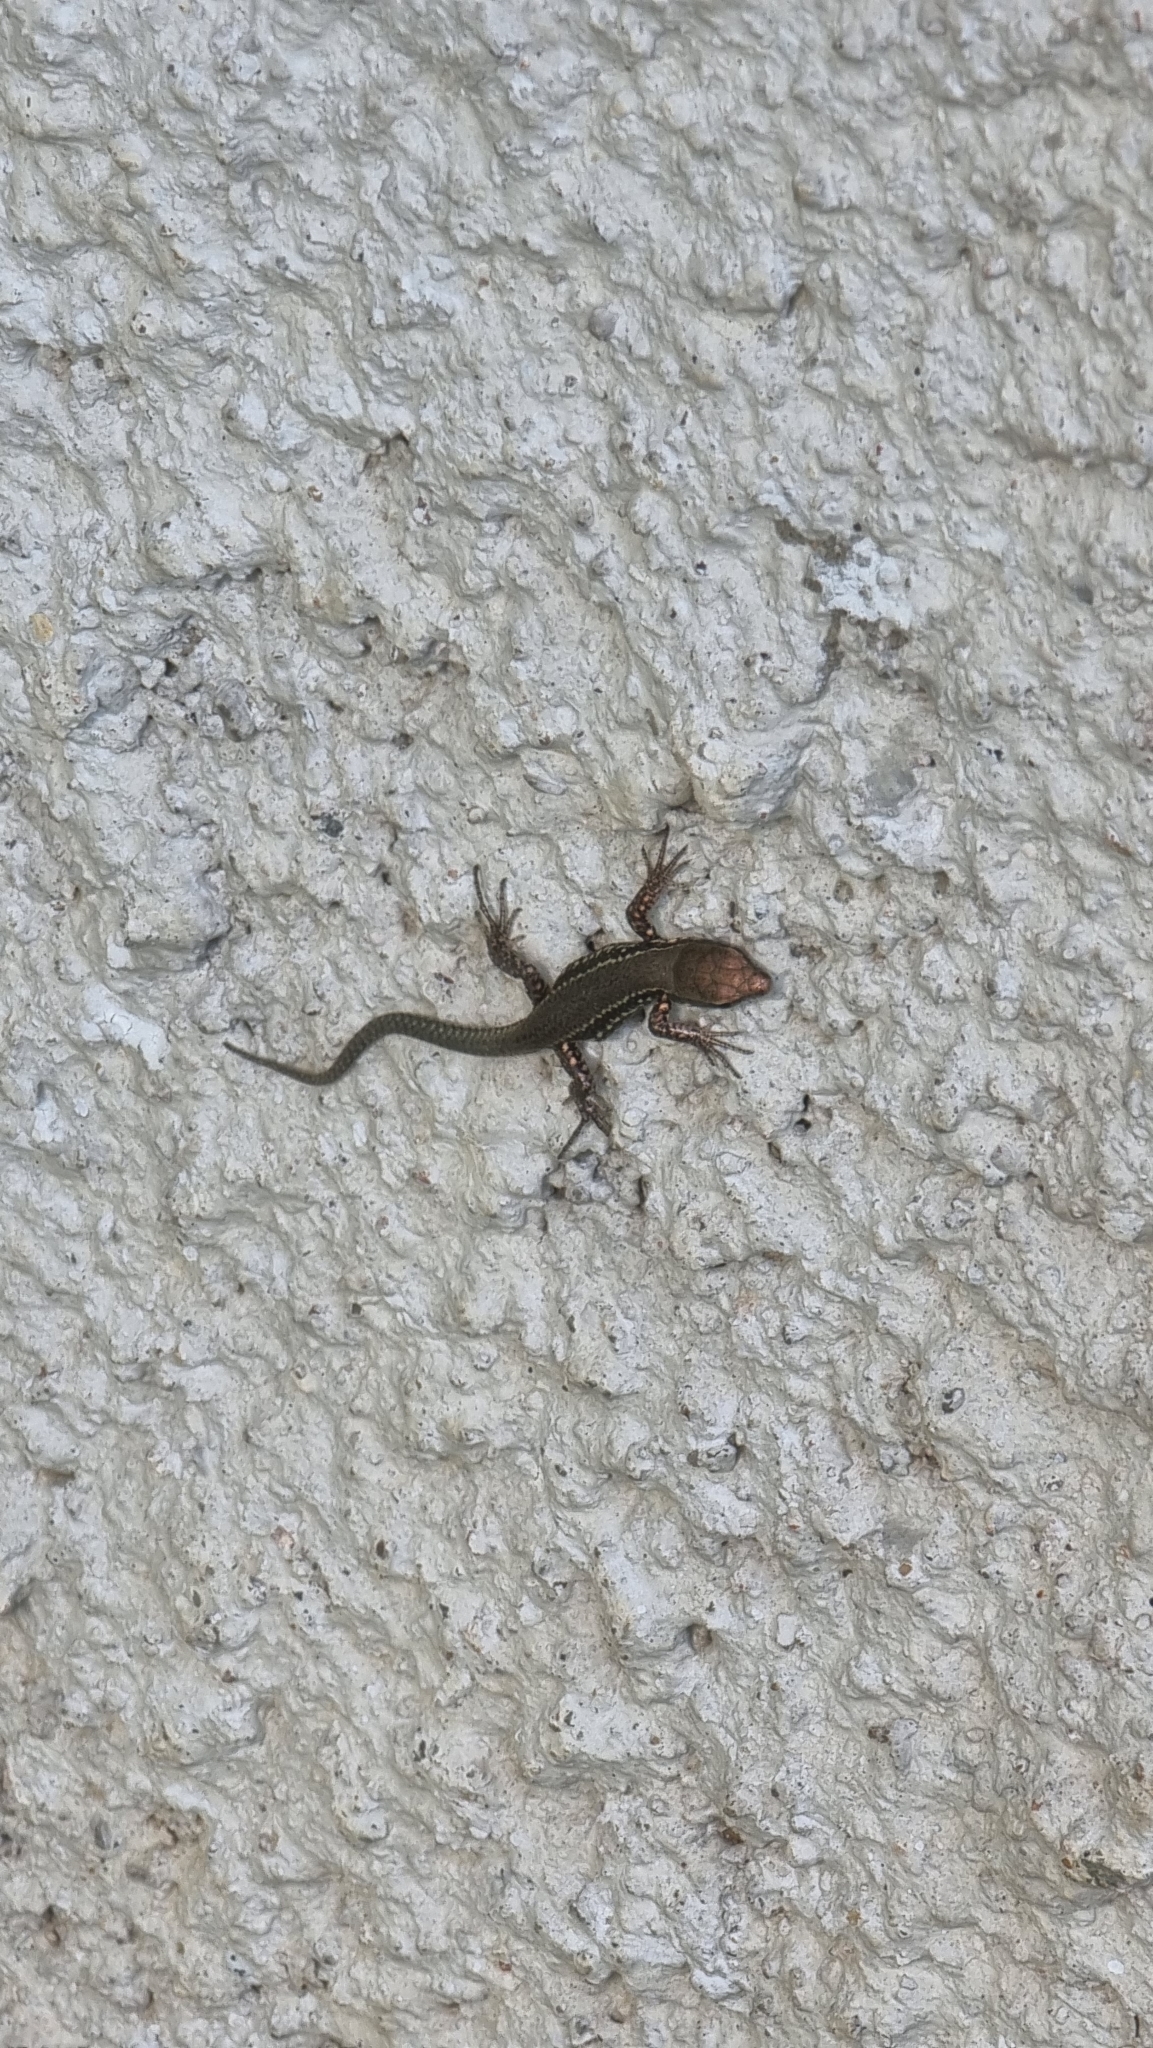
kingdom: Animalia
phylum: Chordata
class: Squamata
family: Lacertidae
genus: Podarcis
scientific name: Podarcis muralis
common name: Common wall lizard
